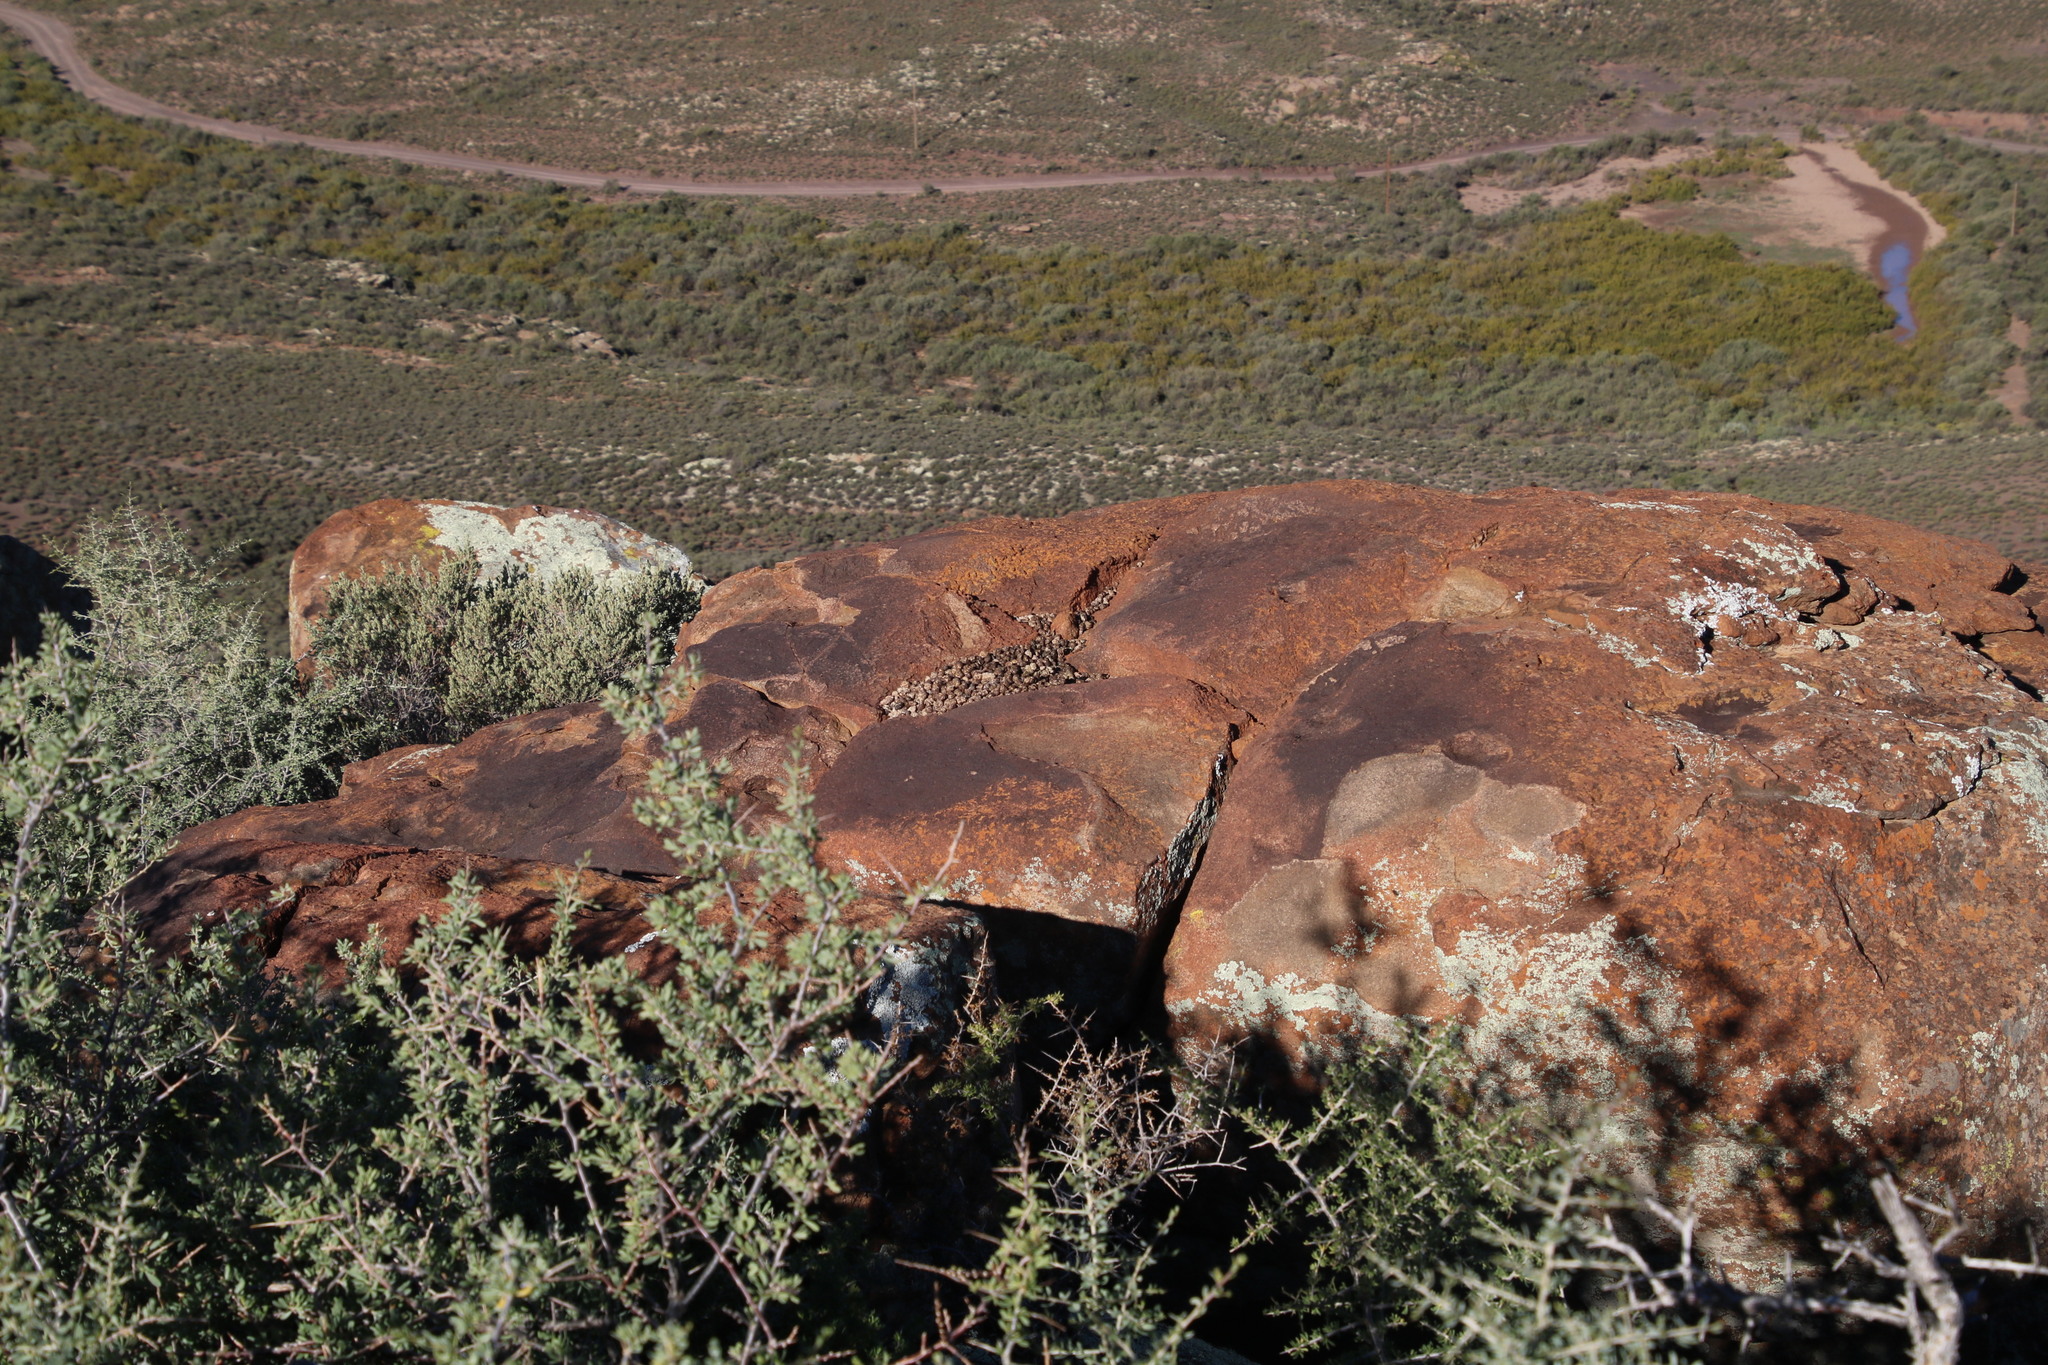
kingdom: Animalia
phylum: Chordata
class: Mammalia
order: Hyracoidea
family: Procaviidae
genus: Procavia
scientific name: Procavia capensis
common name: Rock hyrax
